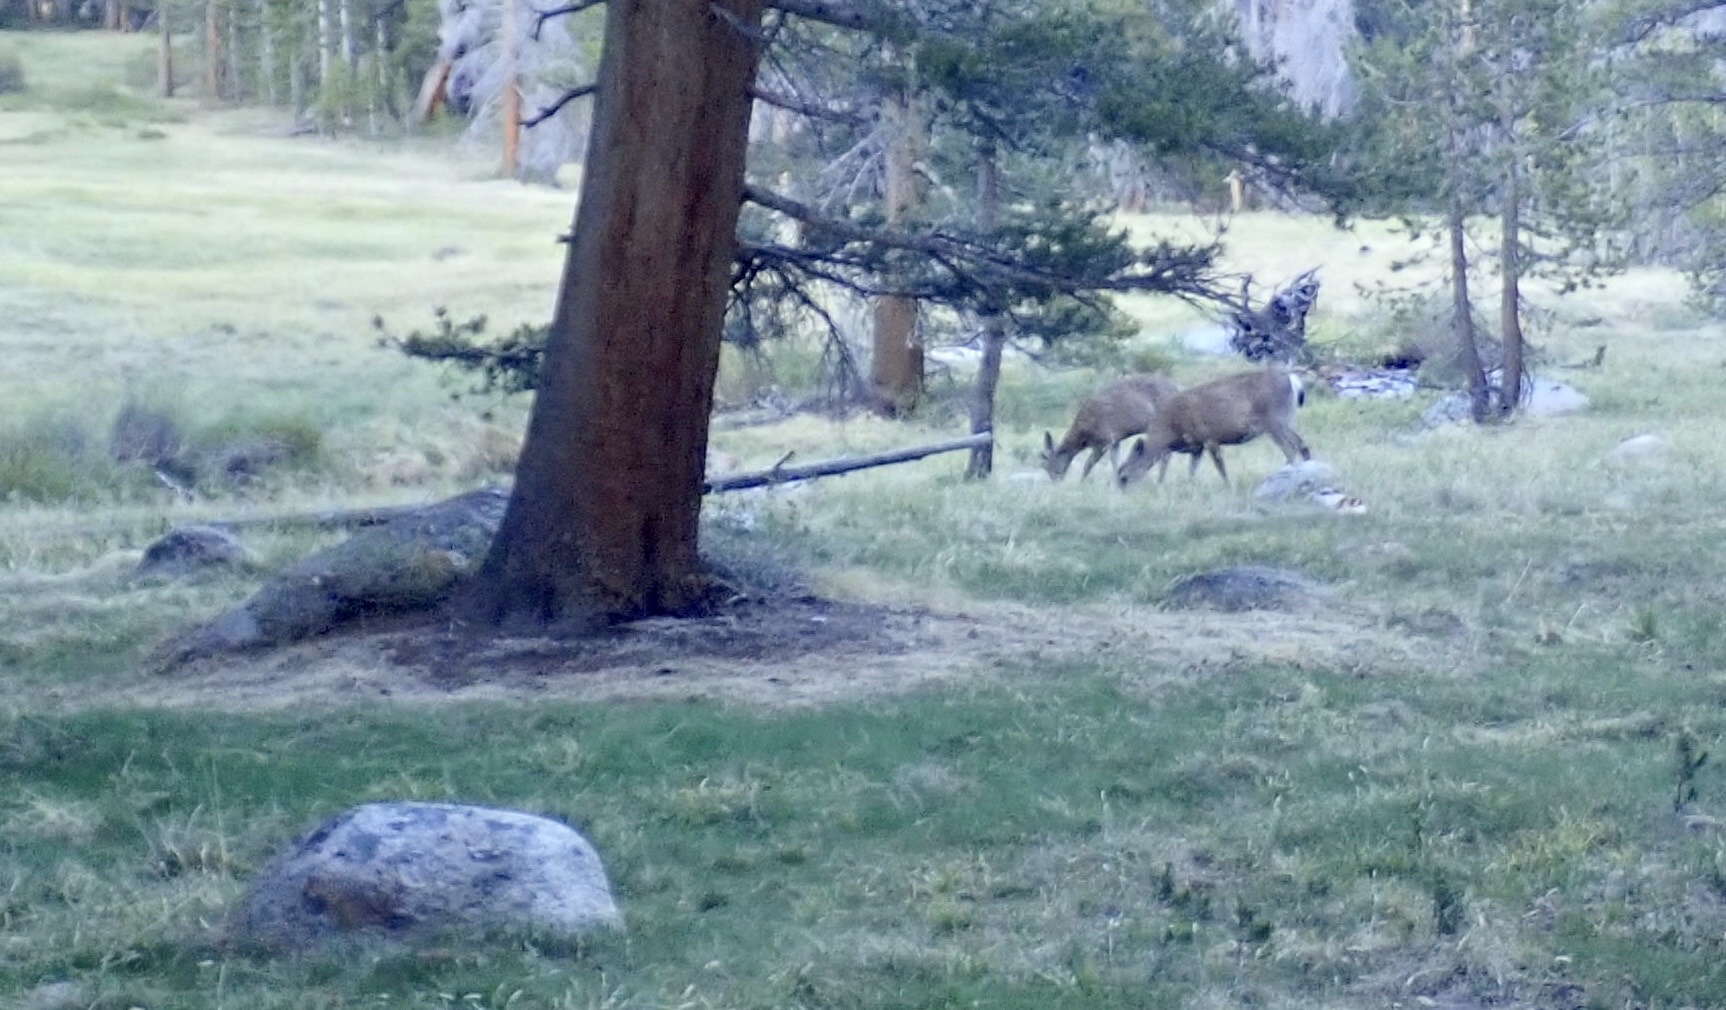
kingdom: Animalia
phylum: Chordata
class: Mammalia
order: Artiodactyla
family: Cervidae
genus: Odocoileus
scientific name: Odocoileus hemionus
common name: Mule deer
